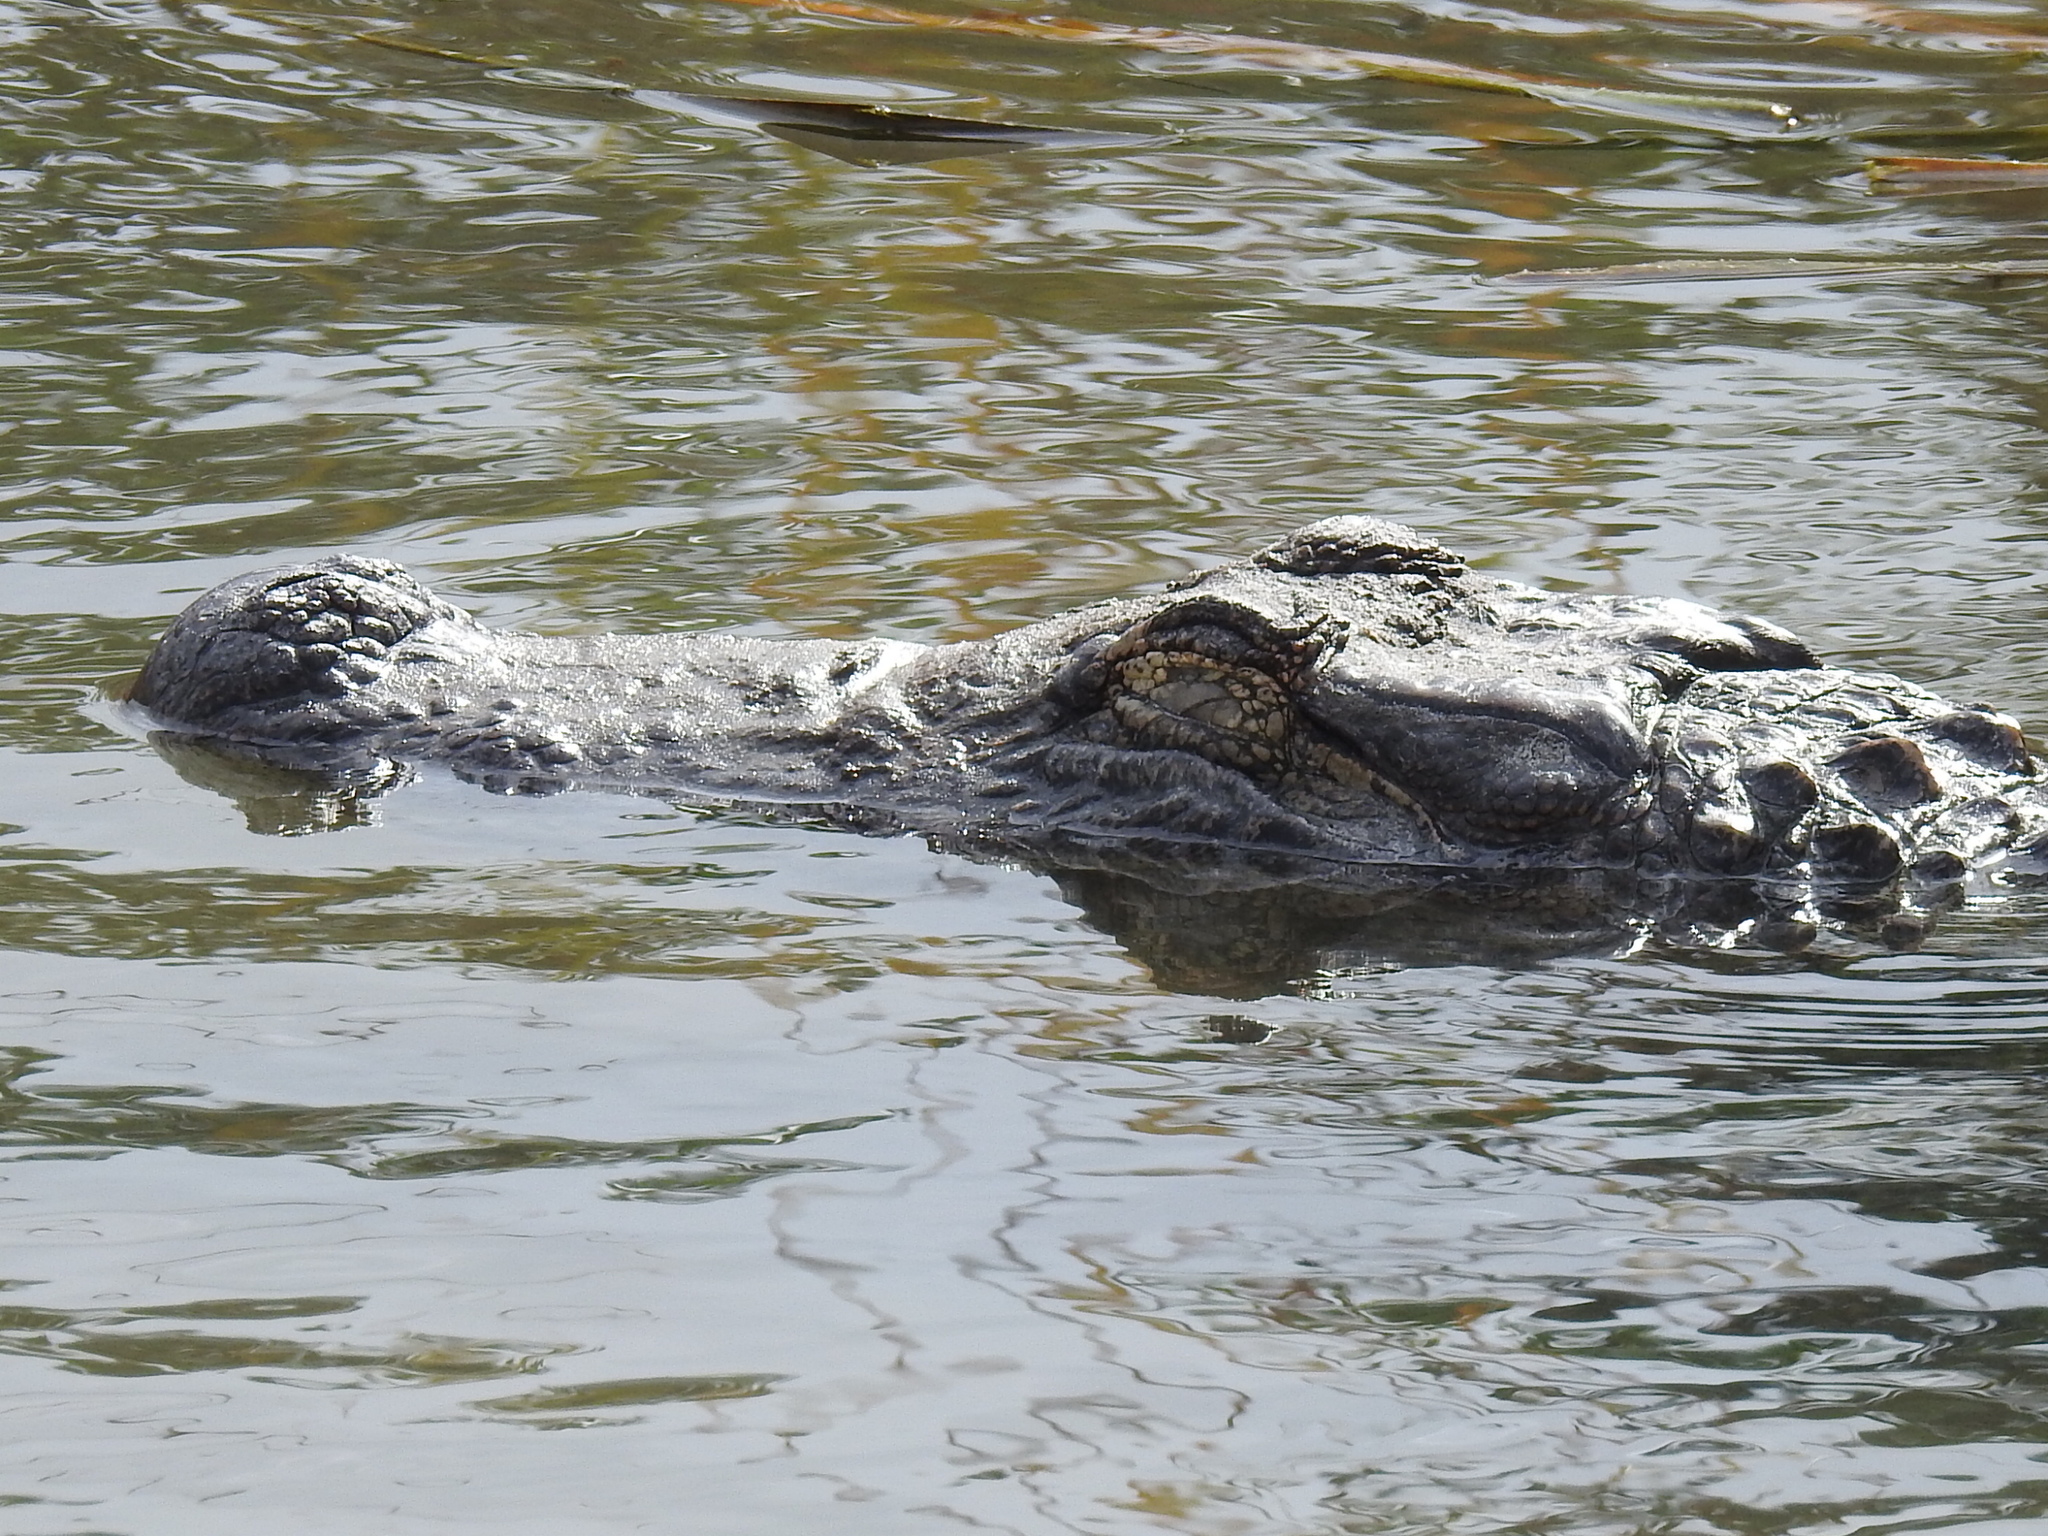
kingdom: Animalia
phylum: Chordata
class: Crocodylia
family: Alligatoridae
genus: Alligator
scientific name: Alligator mississippiensis
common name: American alligator
